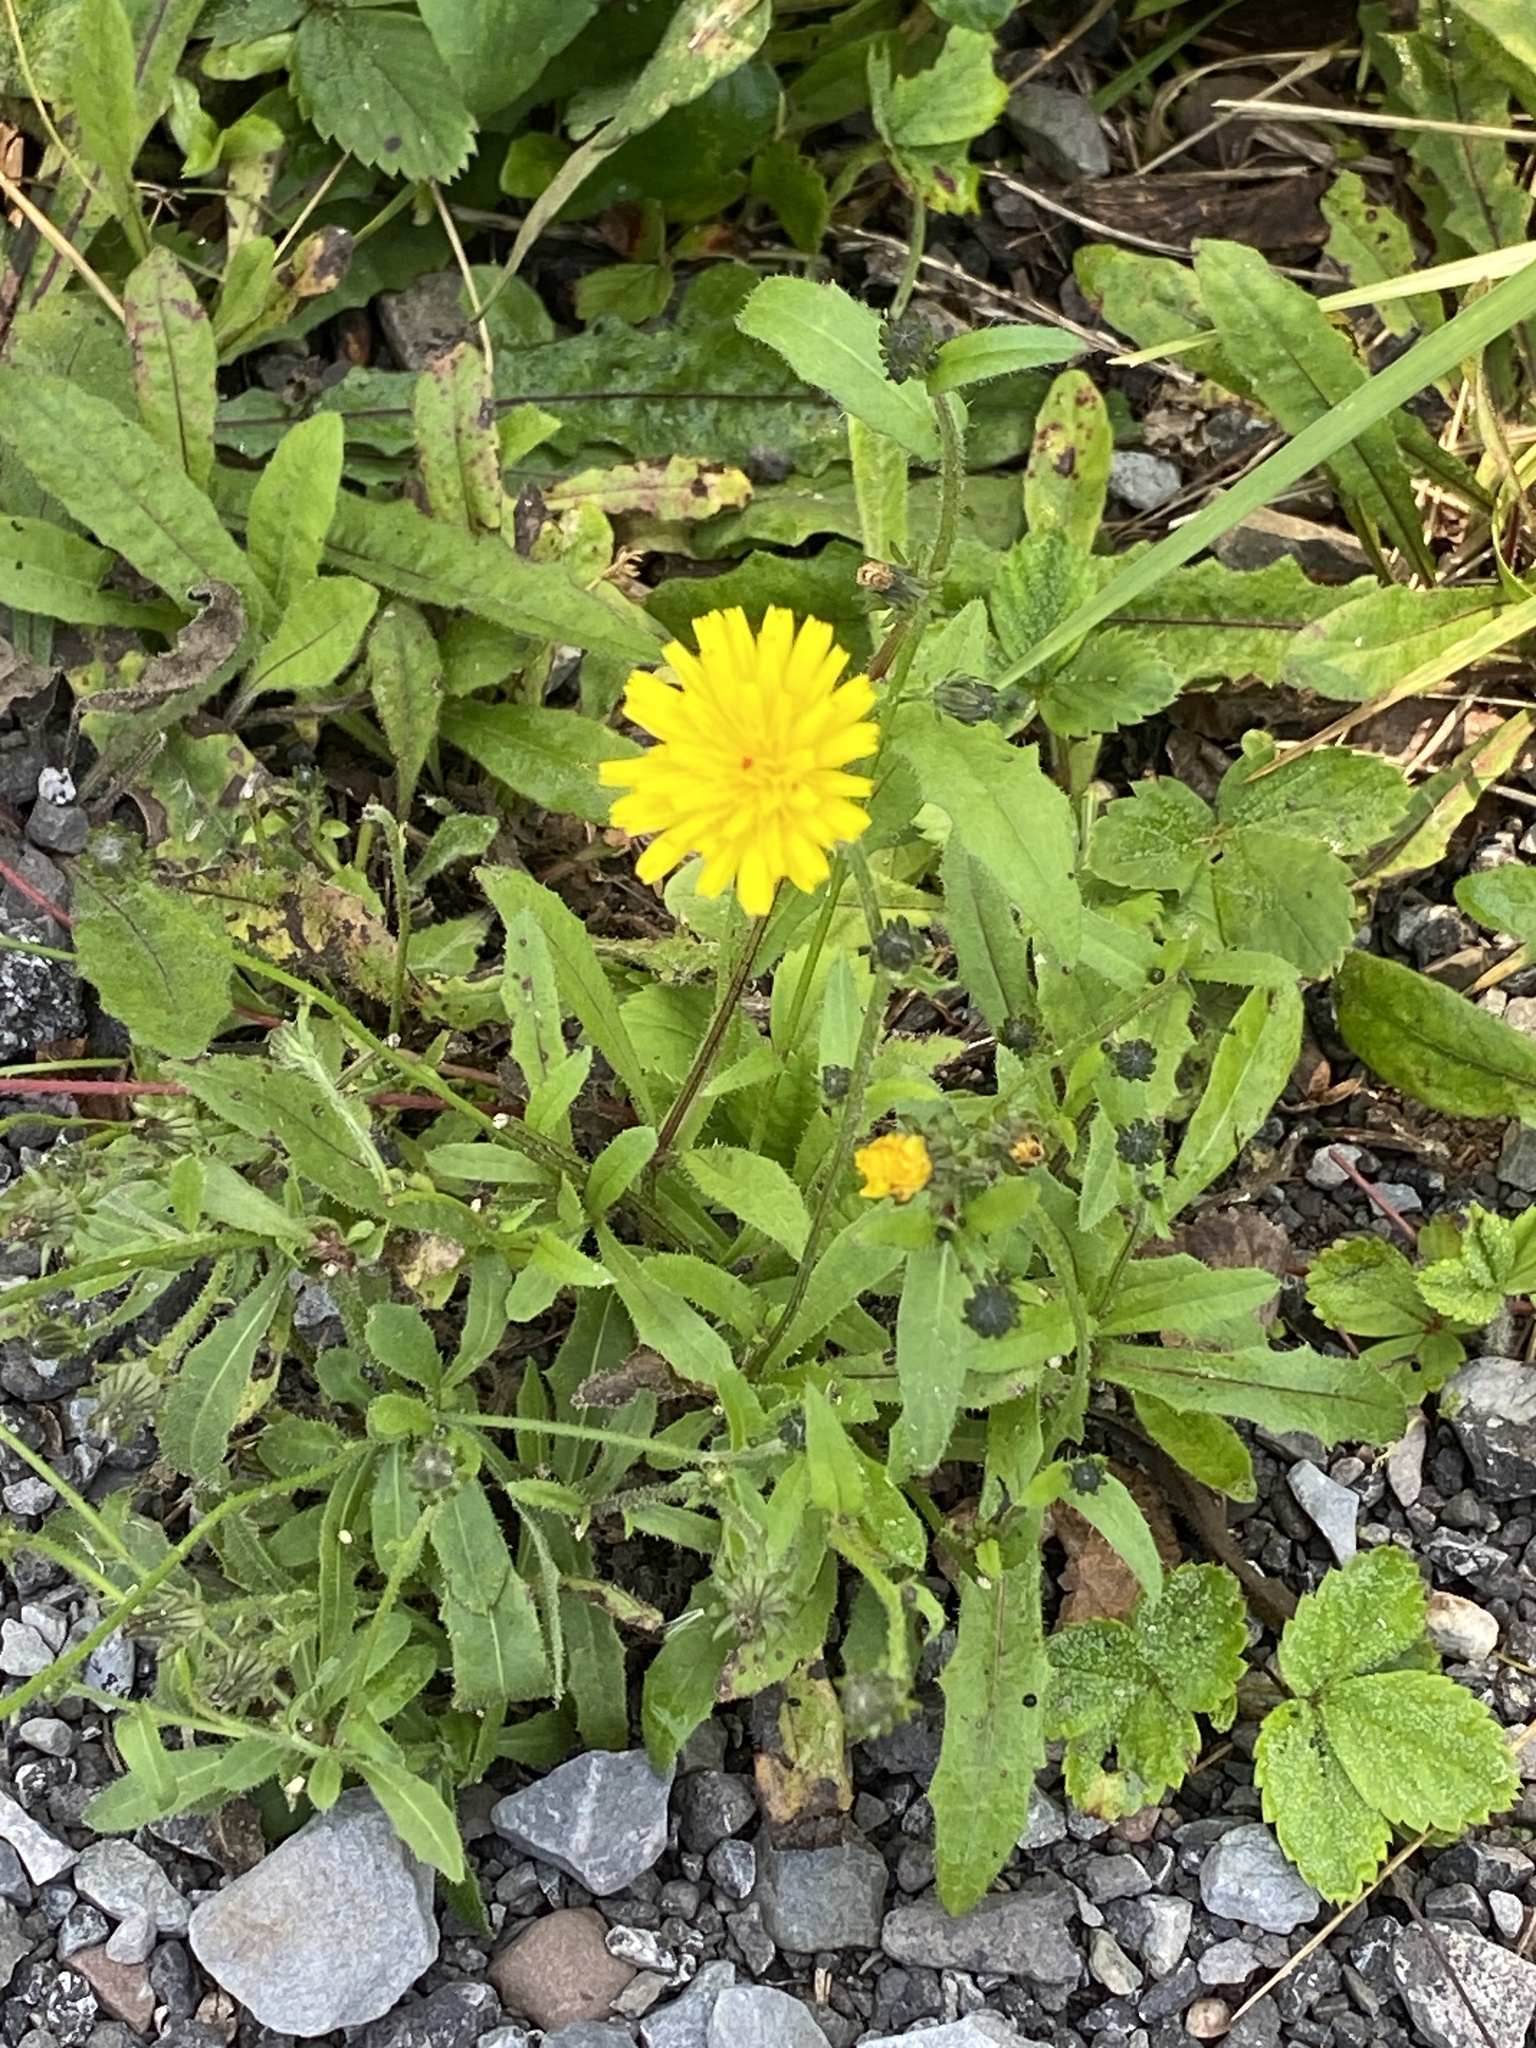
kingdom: Plantae
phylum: Tracheophyta
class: Magnoliopsida
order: Asterales
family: Asteraceae
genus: Picris
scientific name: Picris hieracioides
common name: Hawkweed oxtongue
